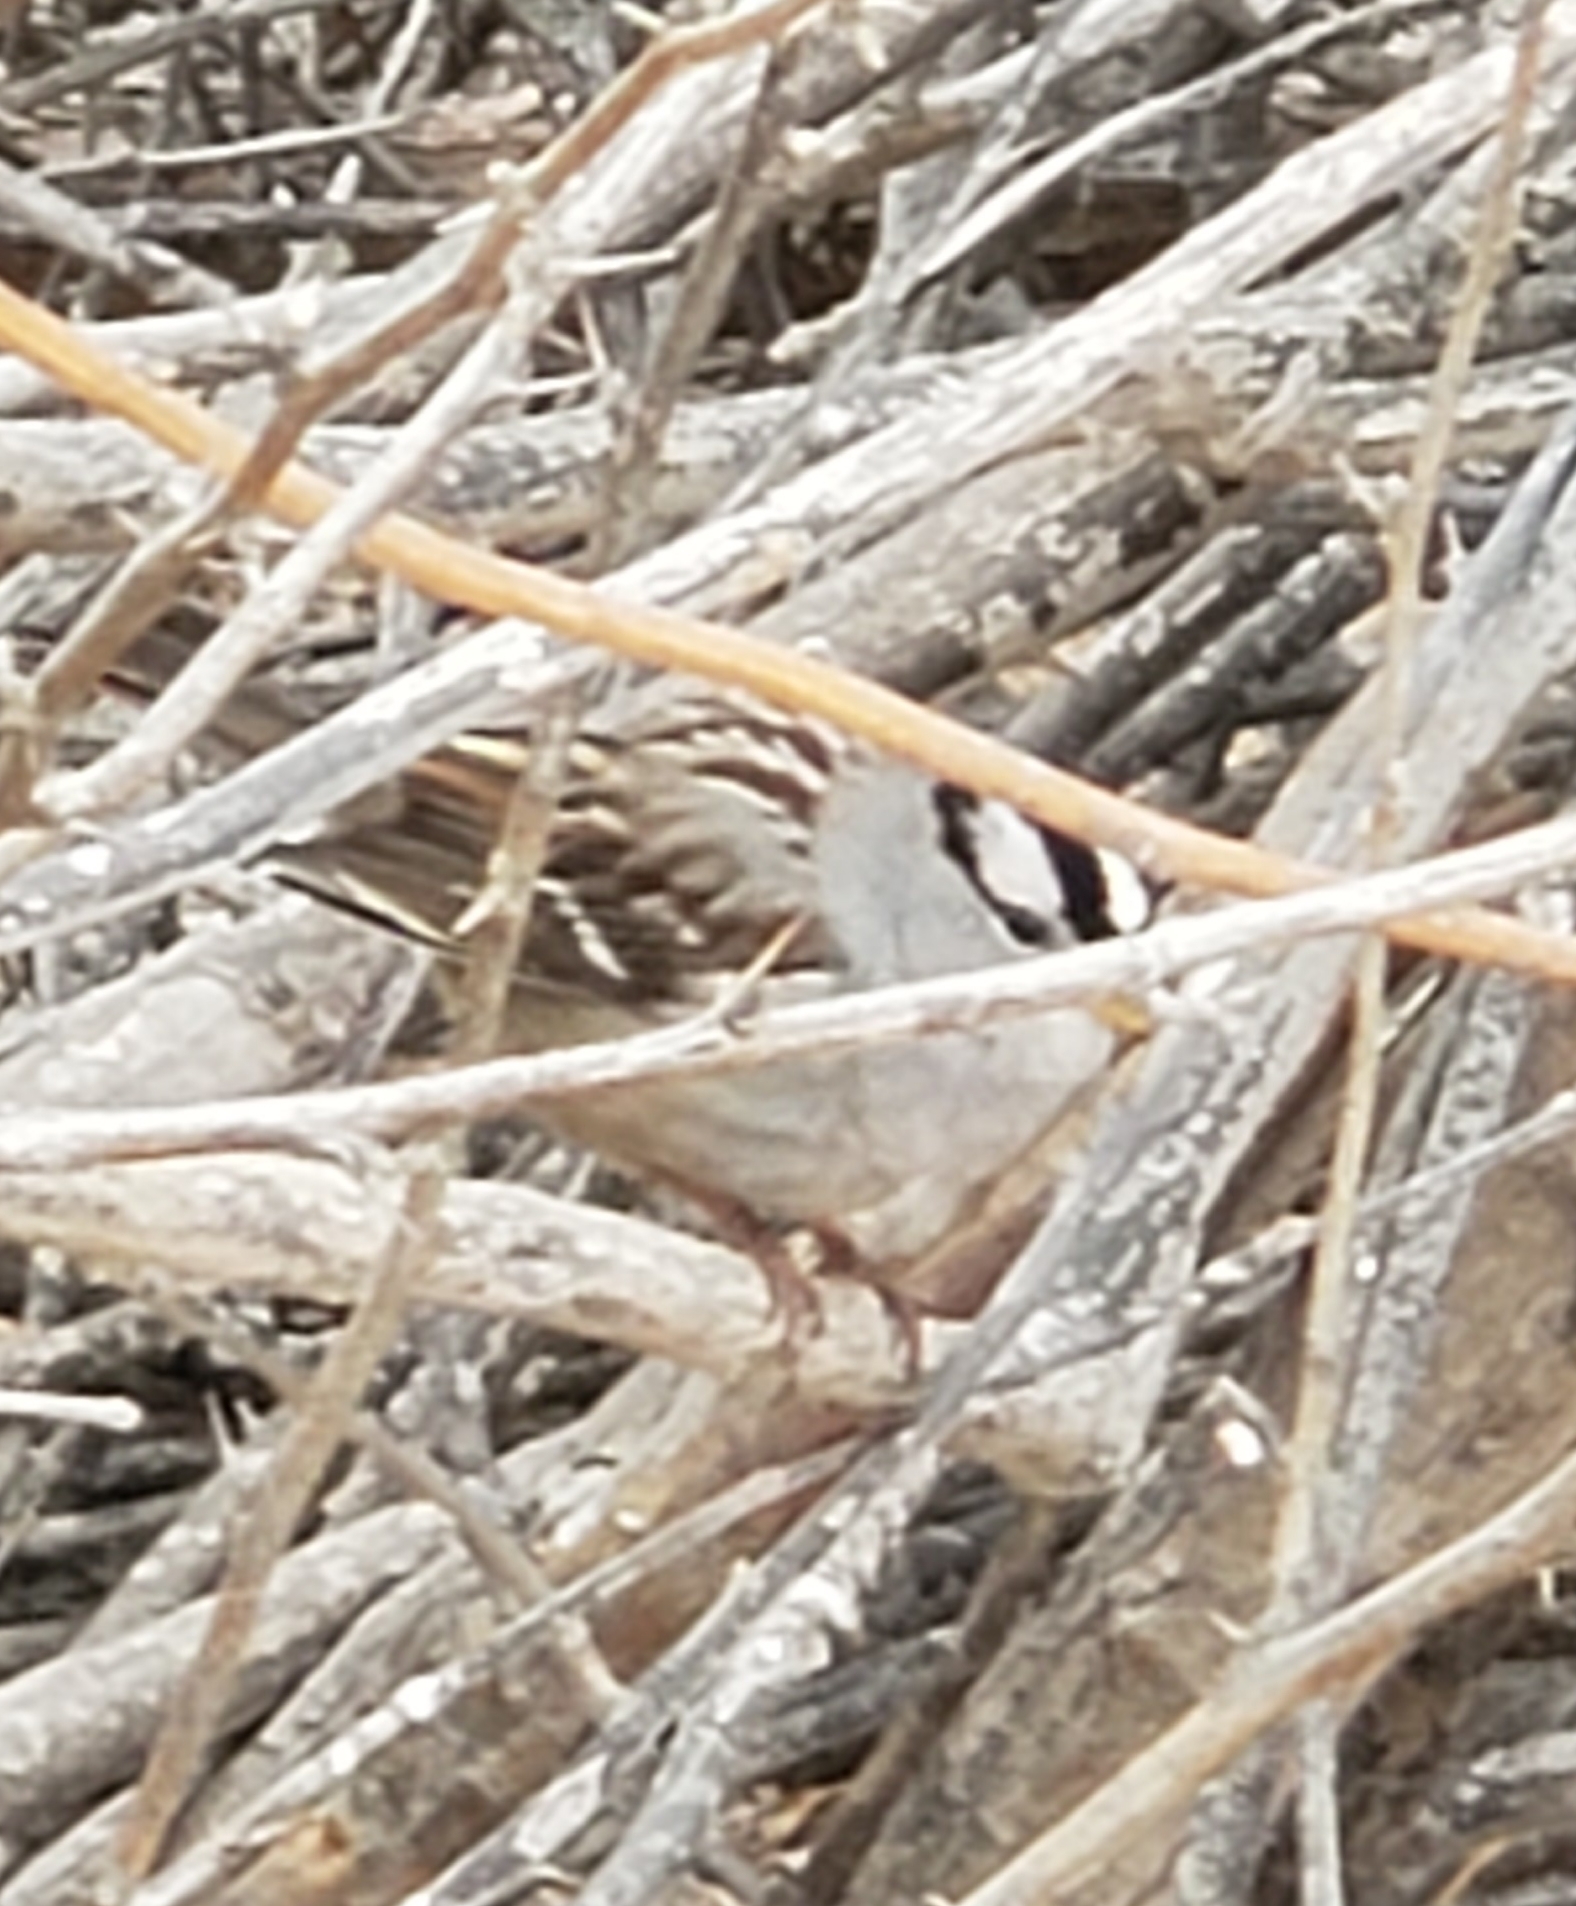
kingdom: Animalia
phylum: Chordata
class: Aves
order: Passeriformes
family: Passerellidae
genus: Zonotrichia
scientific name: Zonotrichia leucophrys
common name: White-crowned sparrow
